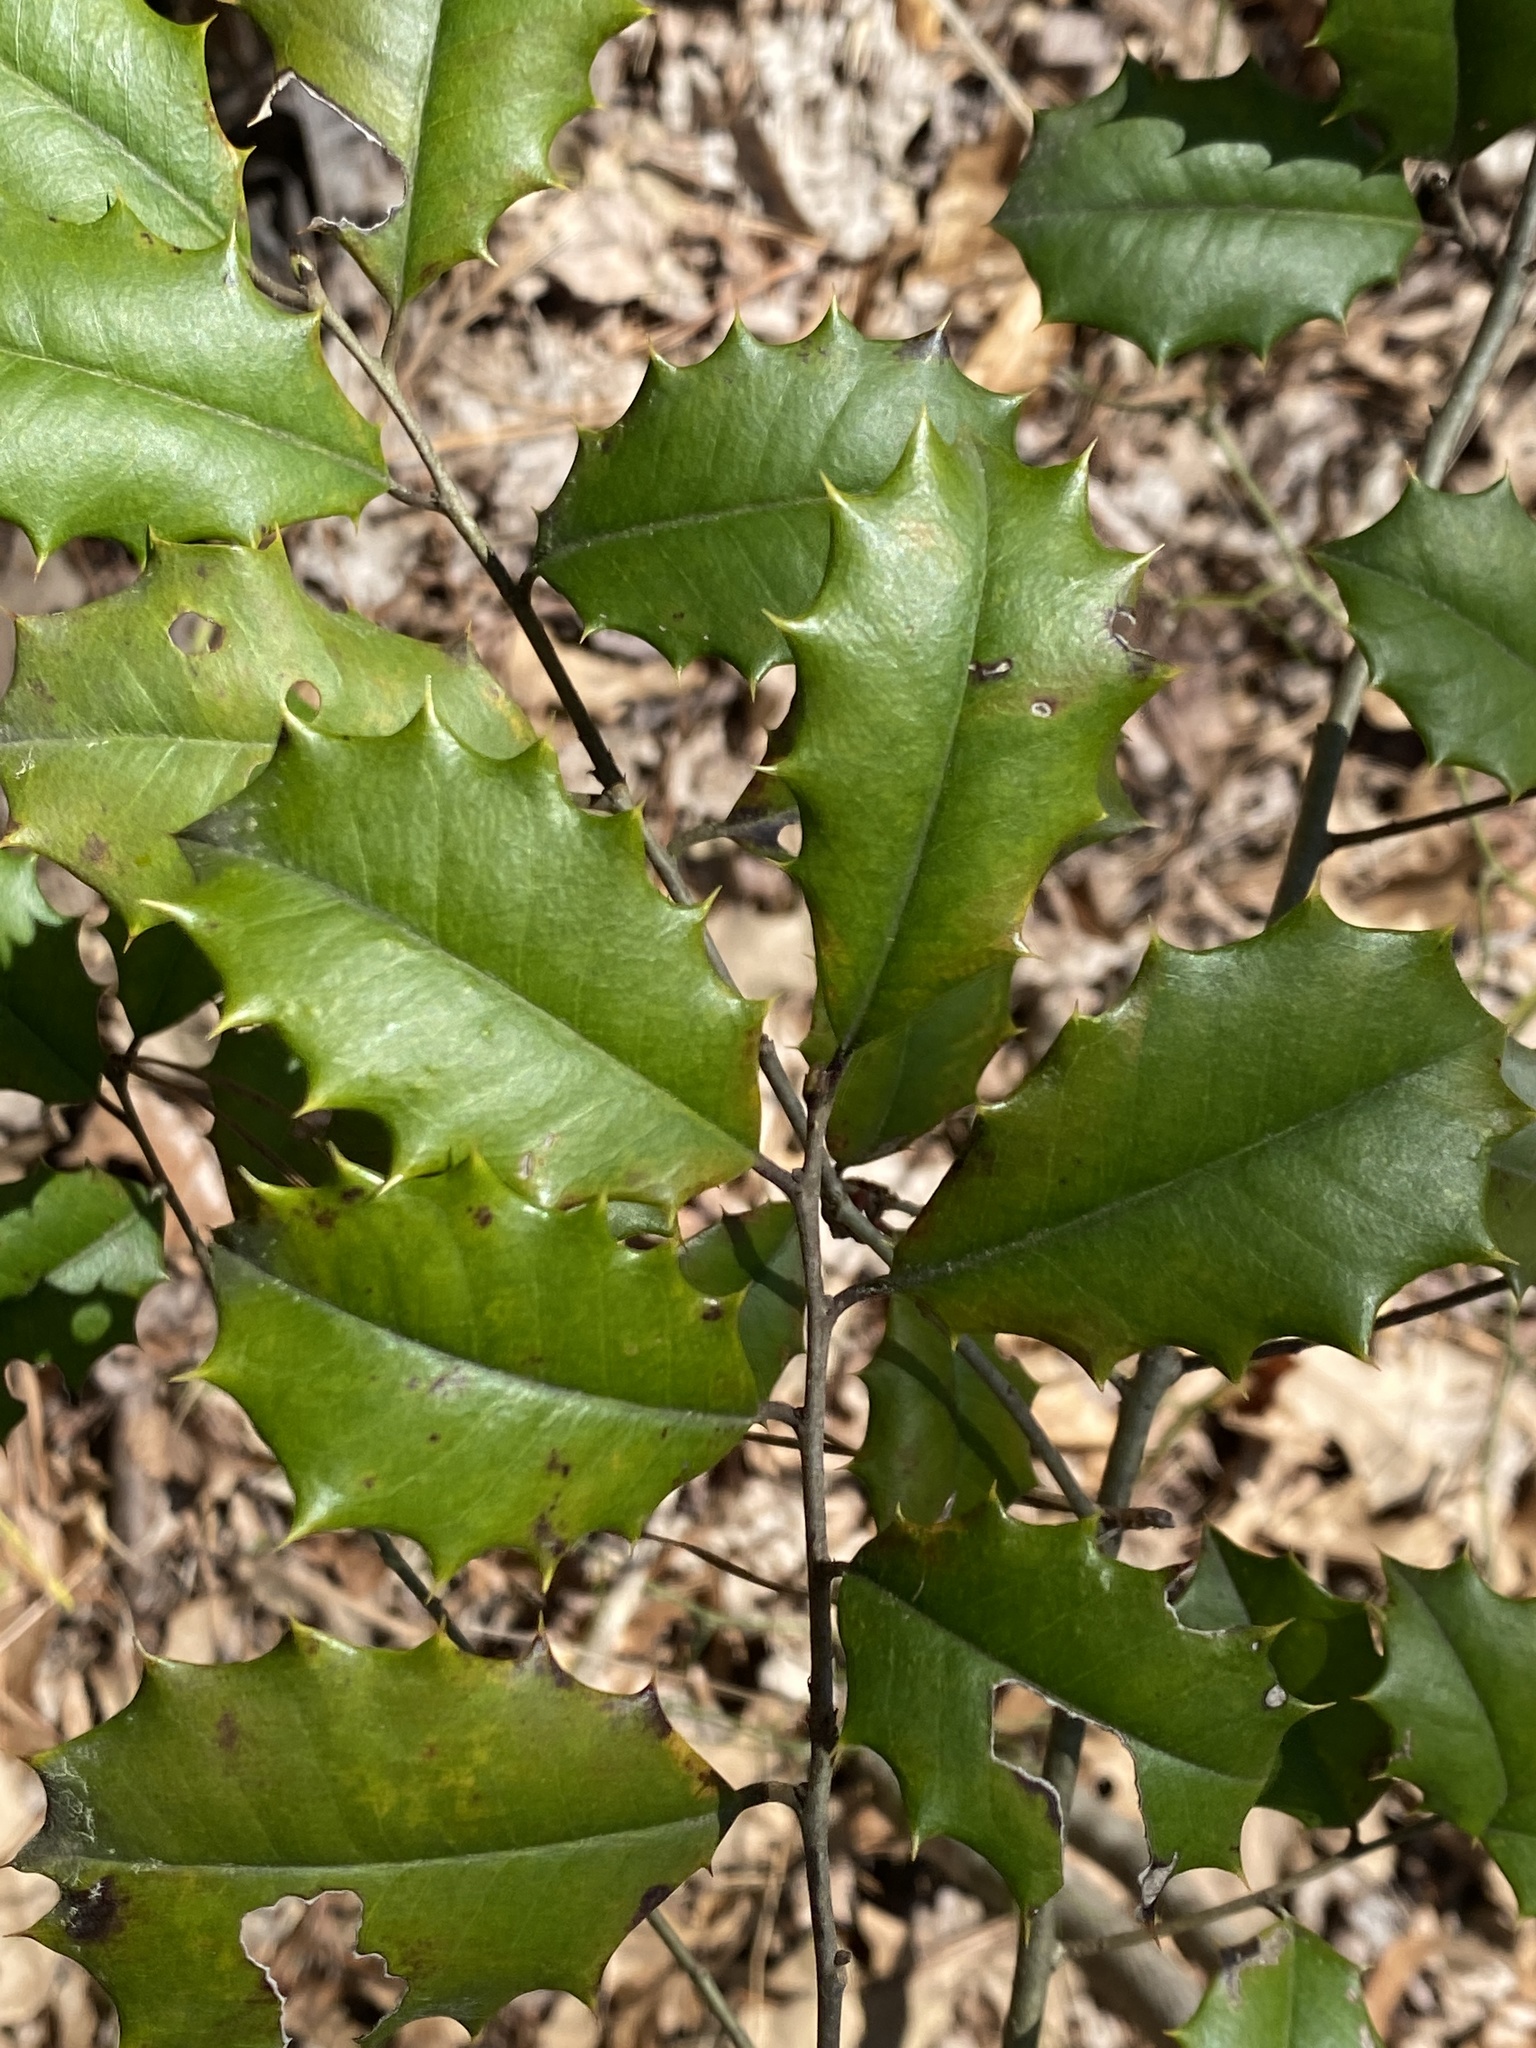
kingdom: Plantae
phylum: Tracheophyta
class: Magnoliopsida
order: Aquifoliales
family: Aquifoliaceae
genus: Ilex
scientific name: Ilex opaca
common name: American holly
